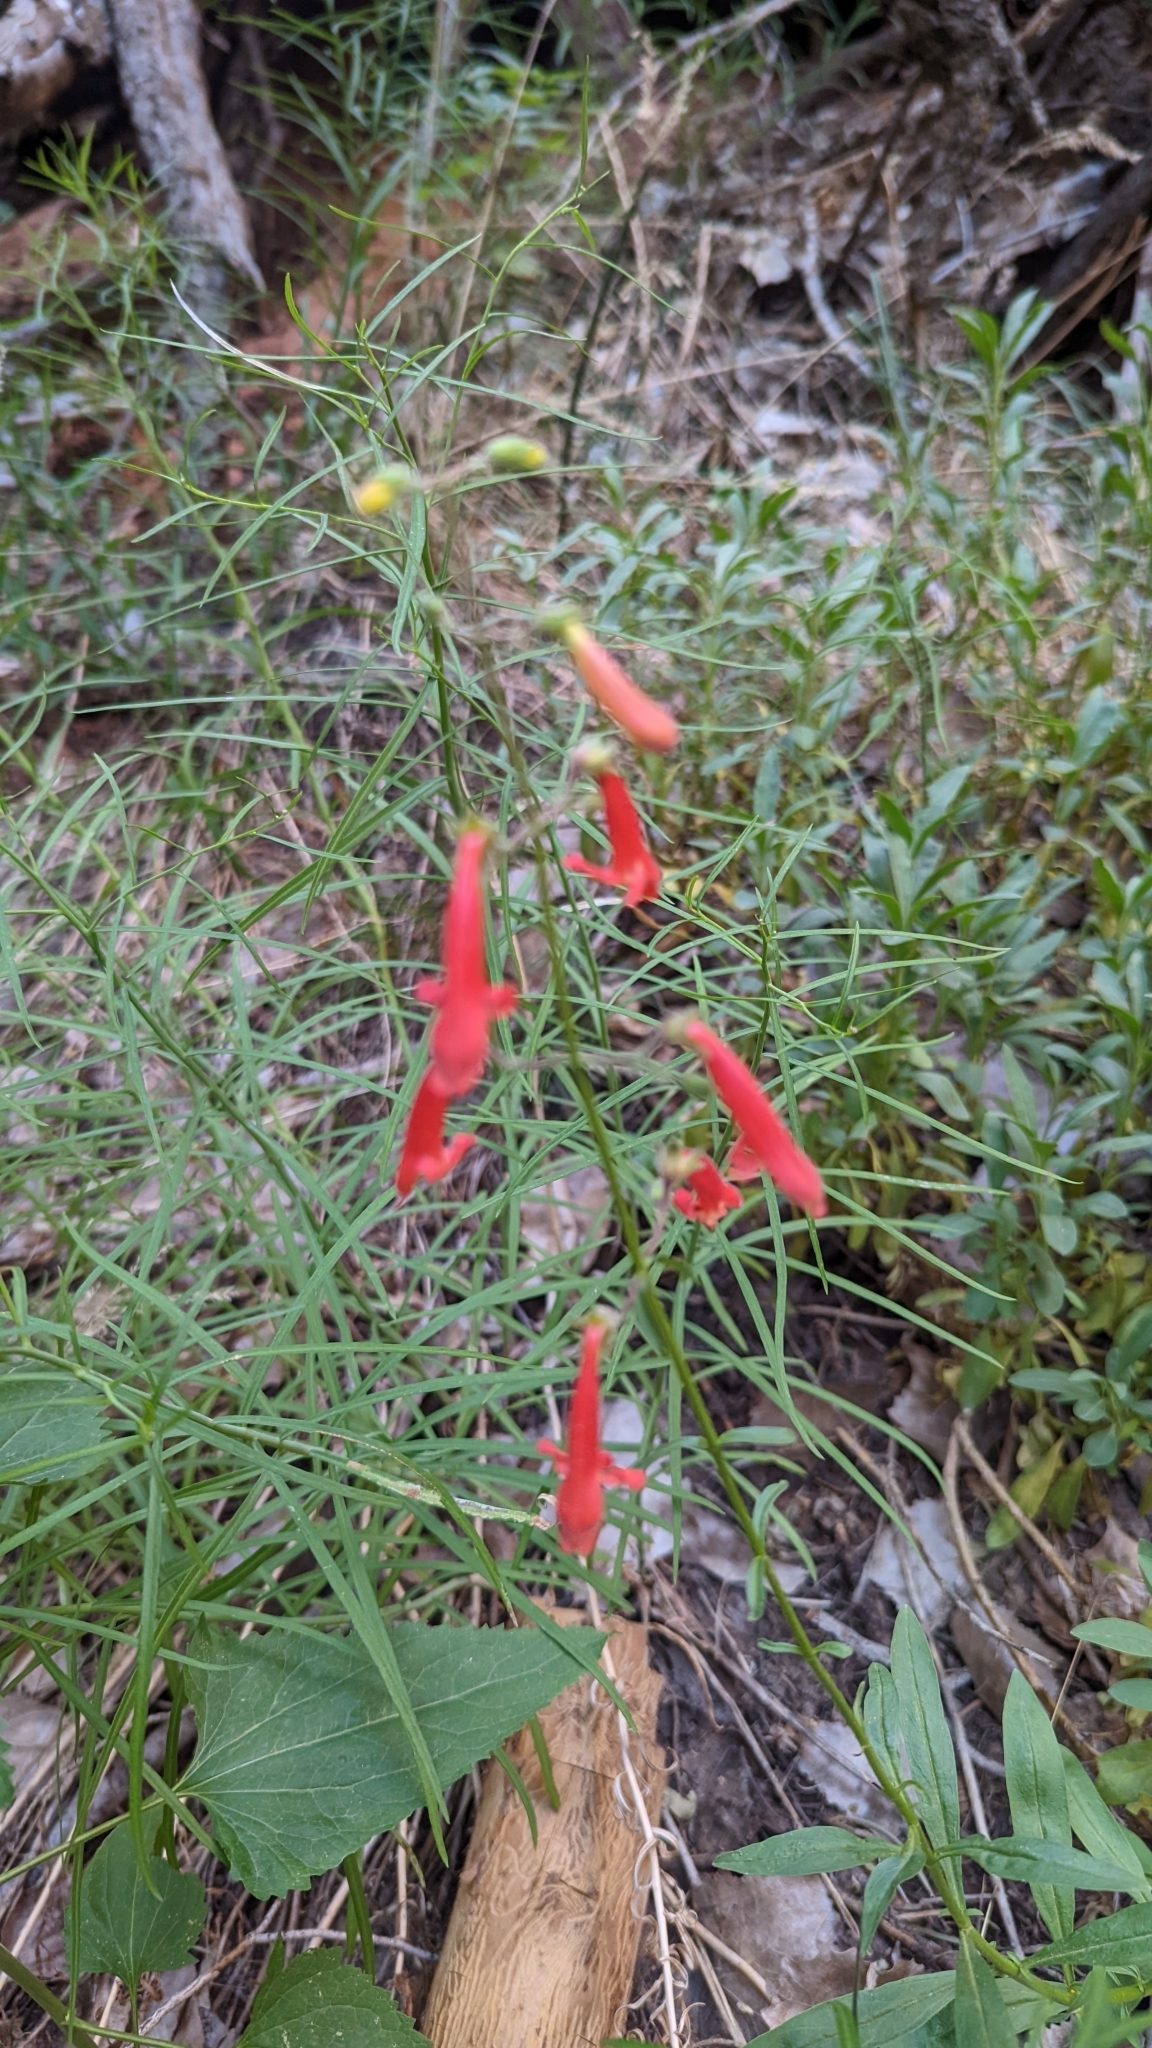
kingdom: Plantae
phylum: Tracheophyta
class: Magnoliopsida
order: Lamiales
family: Plantaginaceae
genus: Penstemon
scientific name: Penstemon rostriflorus
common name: Bridges's penstemon
